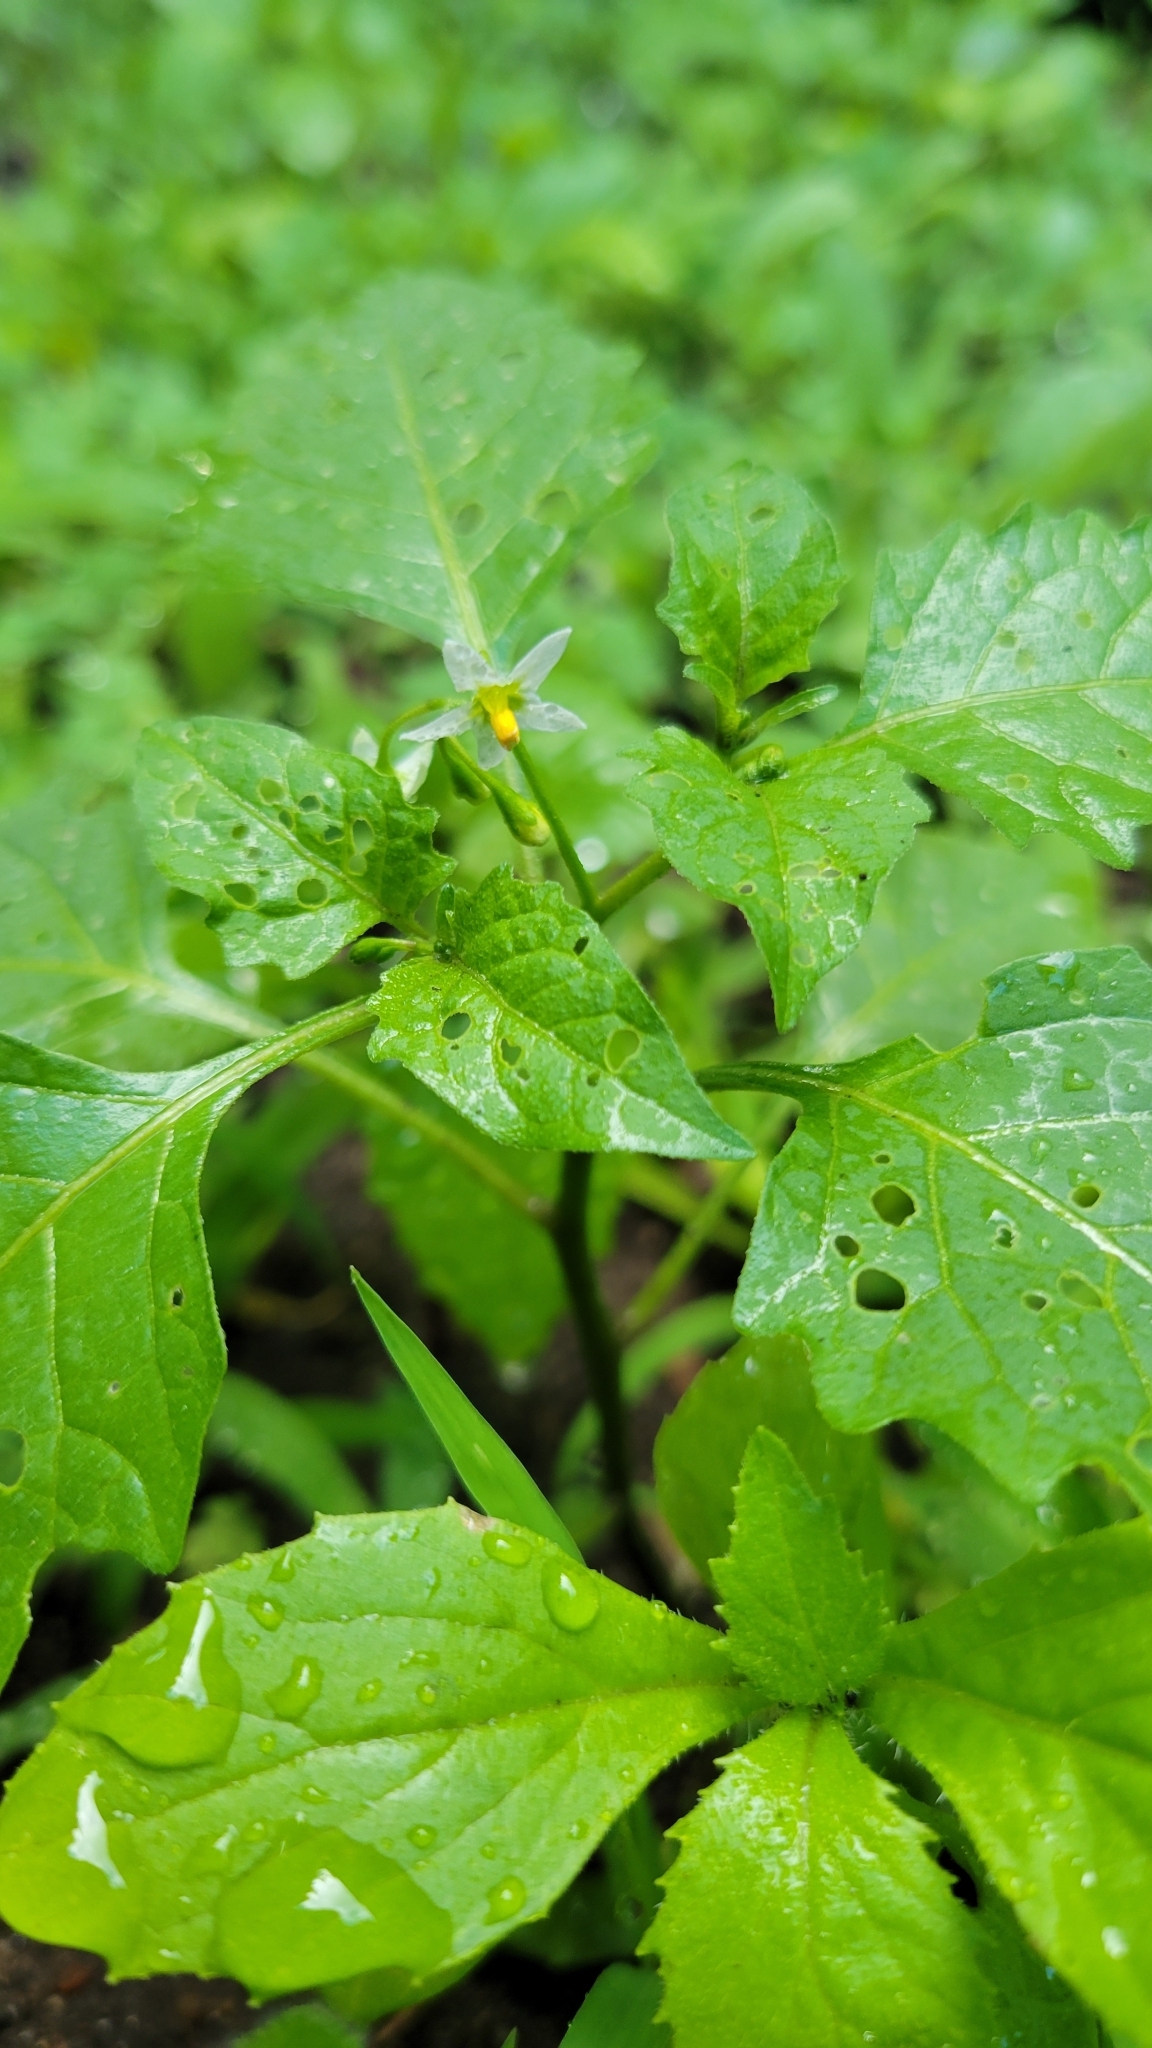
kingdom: Plantae
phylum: Tracheophyta
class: Magnoliopsida
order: Solanales
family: Solanaceae
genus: Solanum
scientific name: Solanum emulans
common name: Eastern black nightshade
